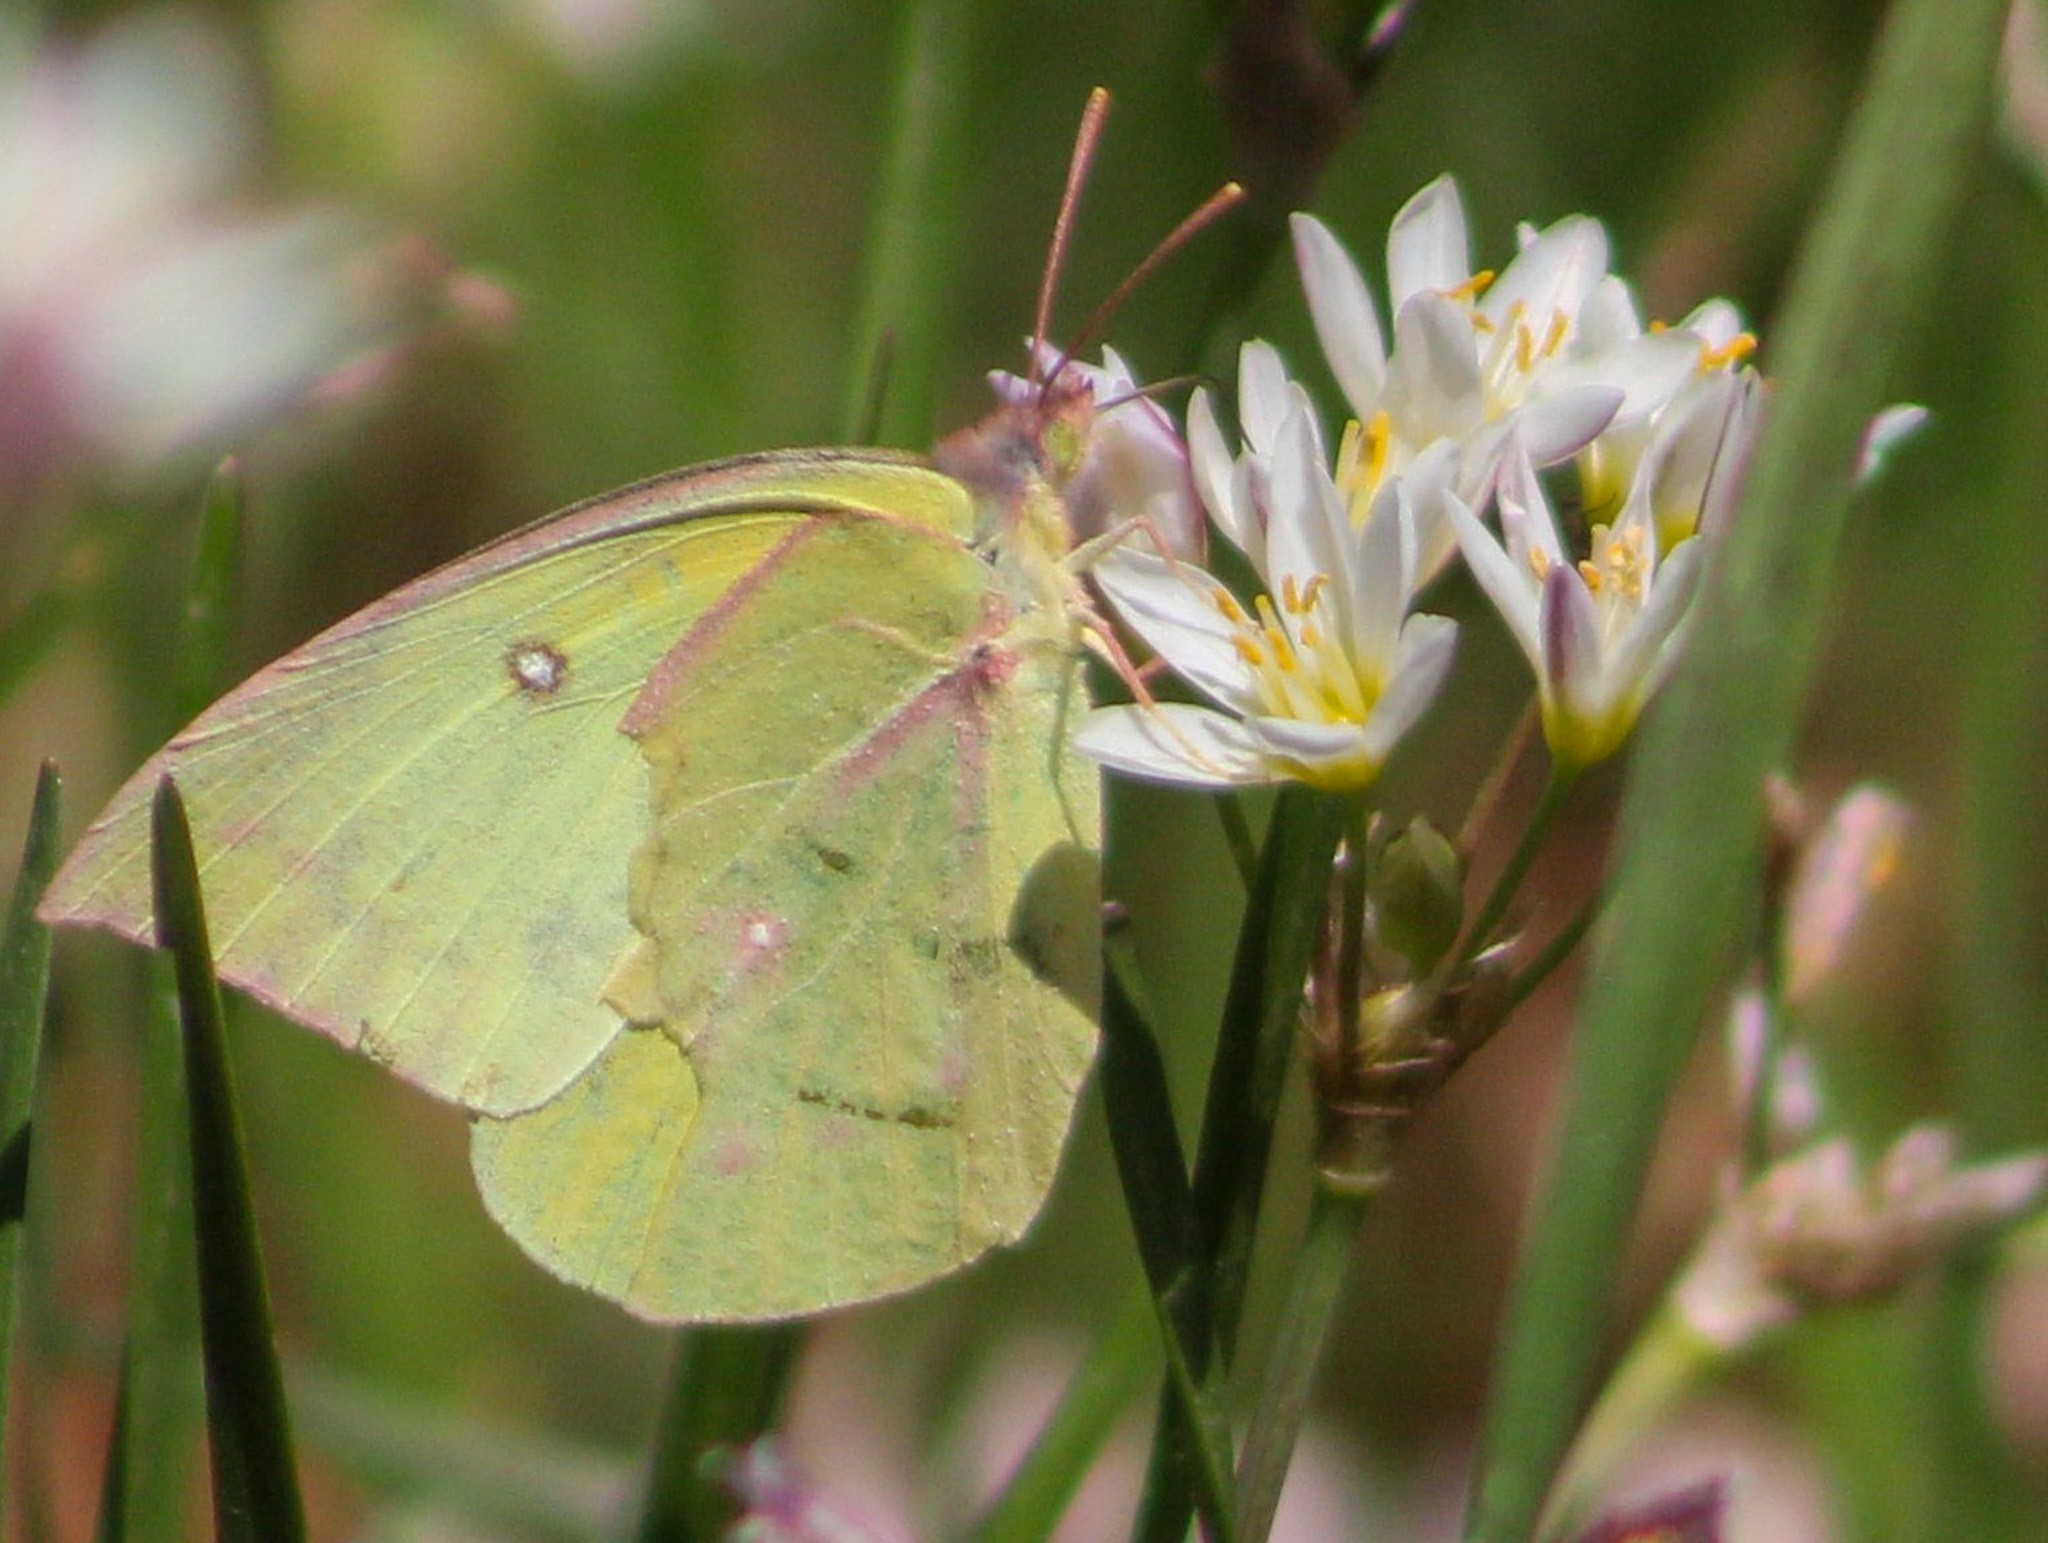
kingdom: Animalia
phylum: Arthropoda
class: Insecta
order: Lepidoptera
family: Pieridae
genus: Zerene
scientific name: Zerene cesonia
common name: Southern dogface
